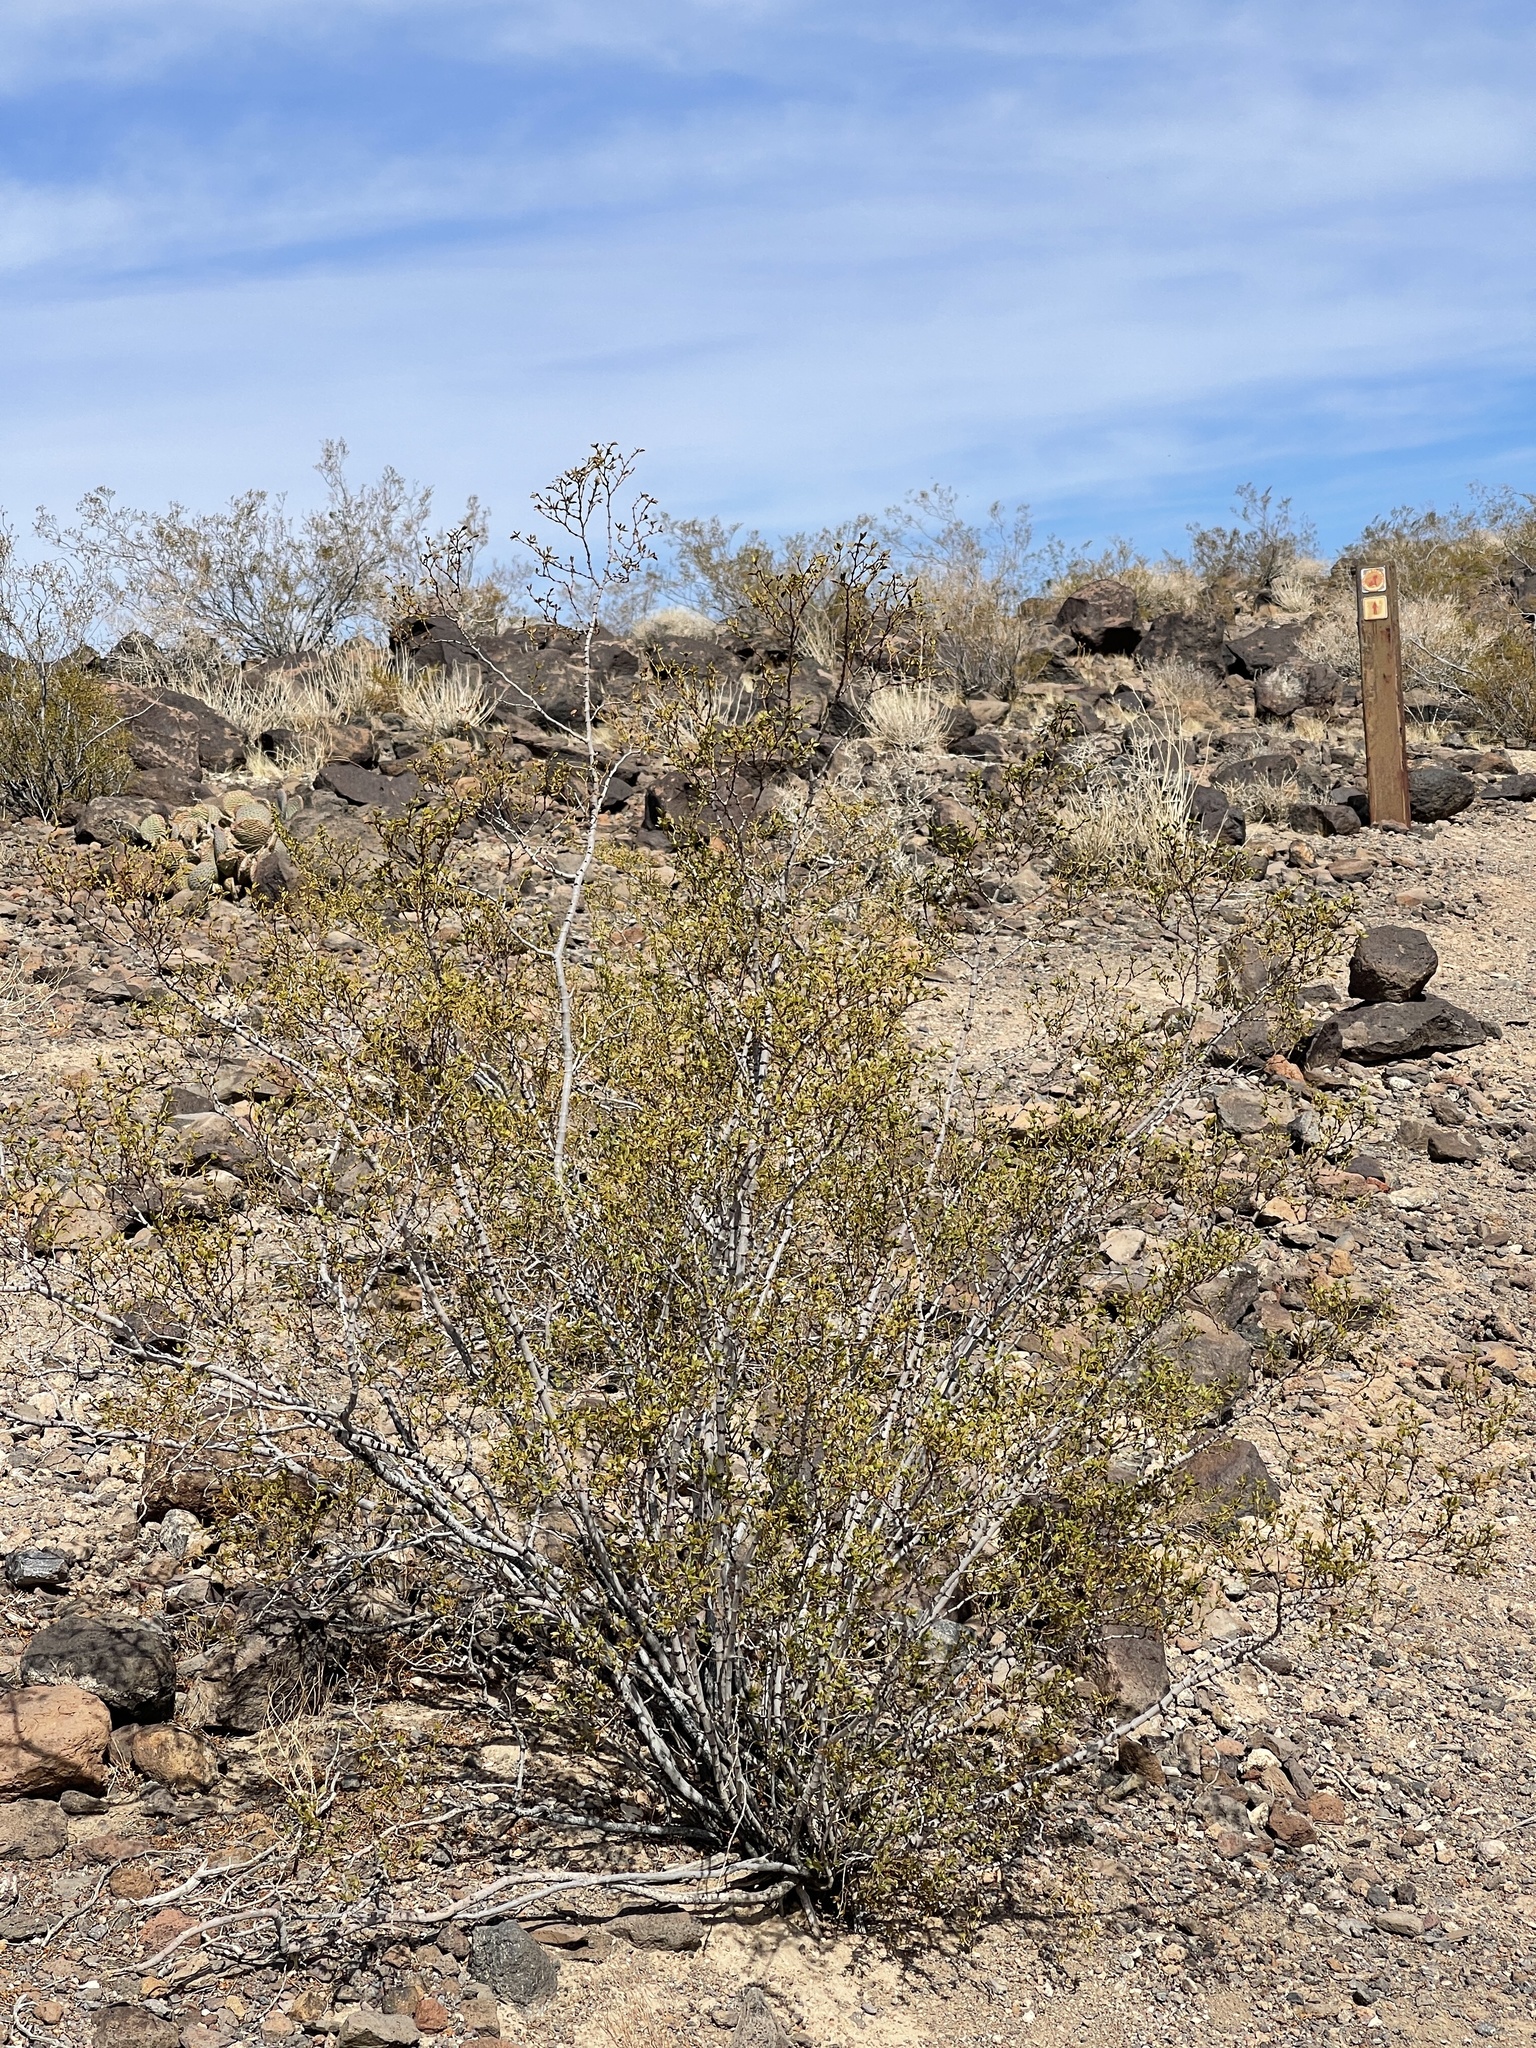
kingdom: Plantae
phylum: Tracheophyta
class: Magnoliopsida
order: Zygophyllales
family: Zygophyllaceae
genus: Larrea
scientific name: Larrea tridentata
